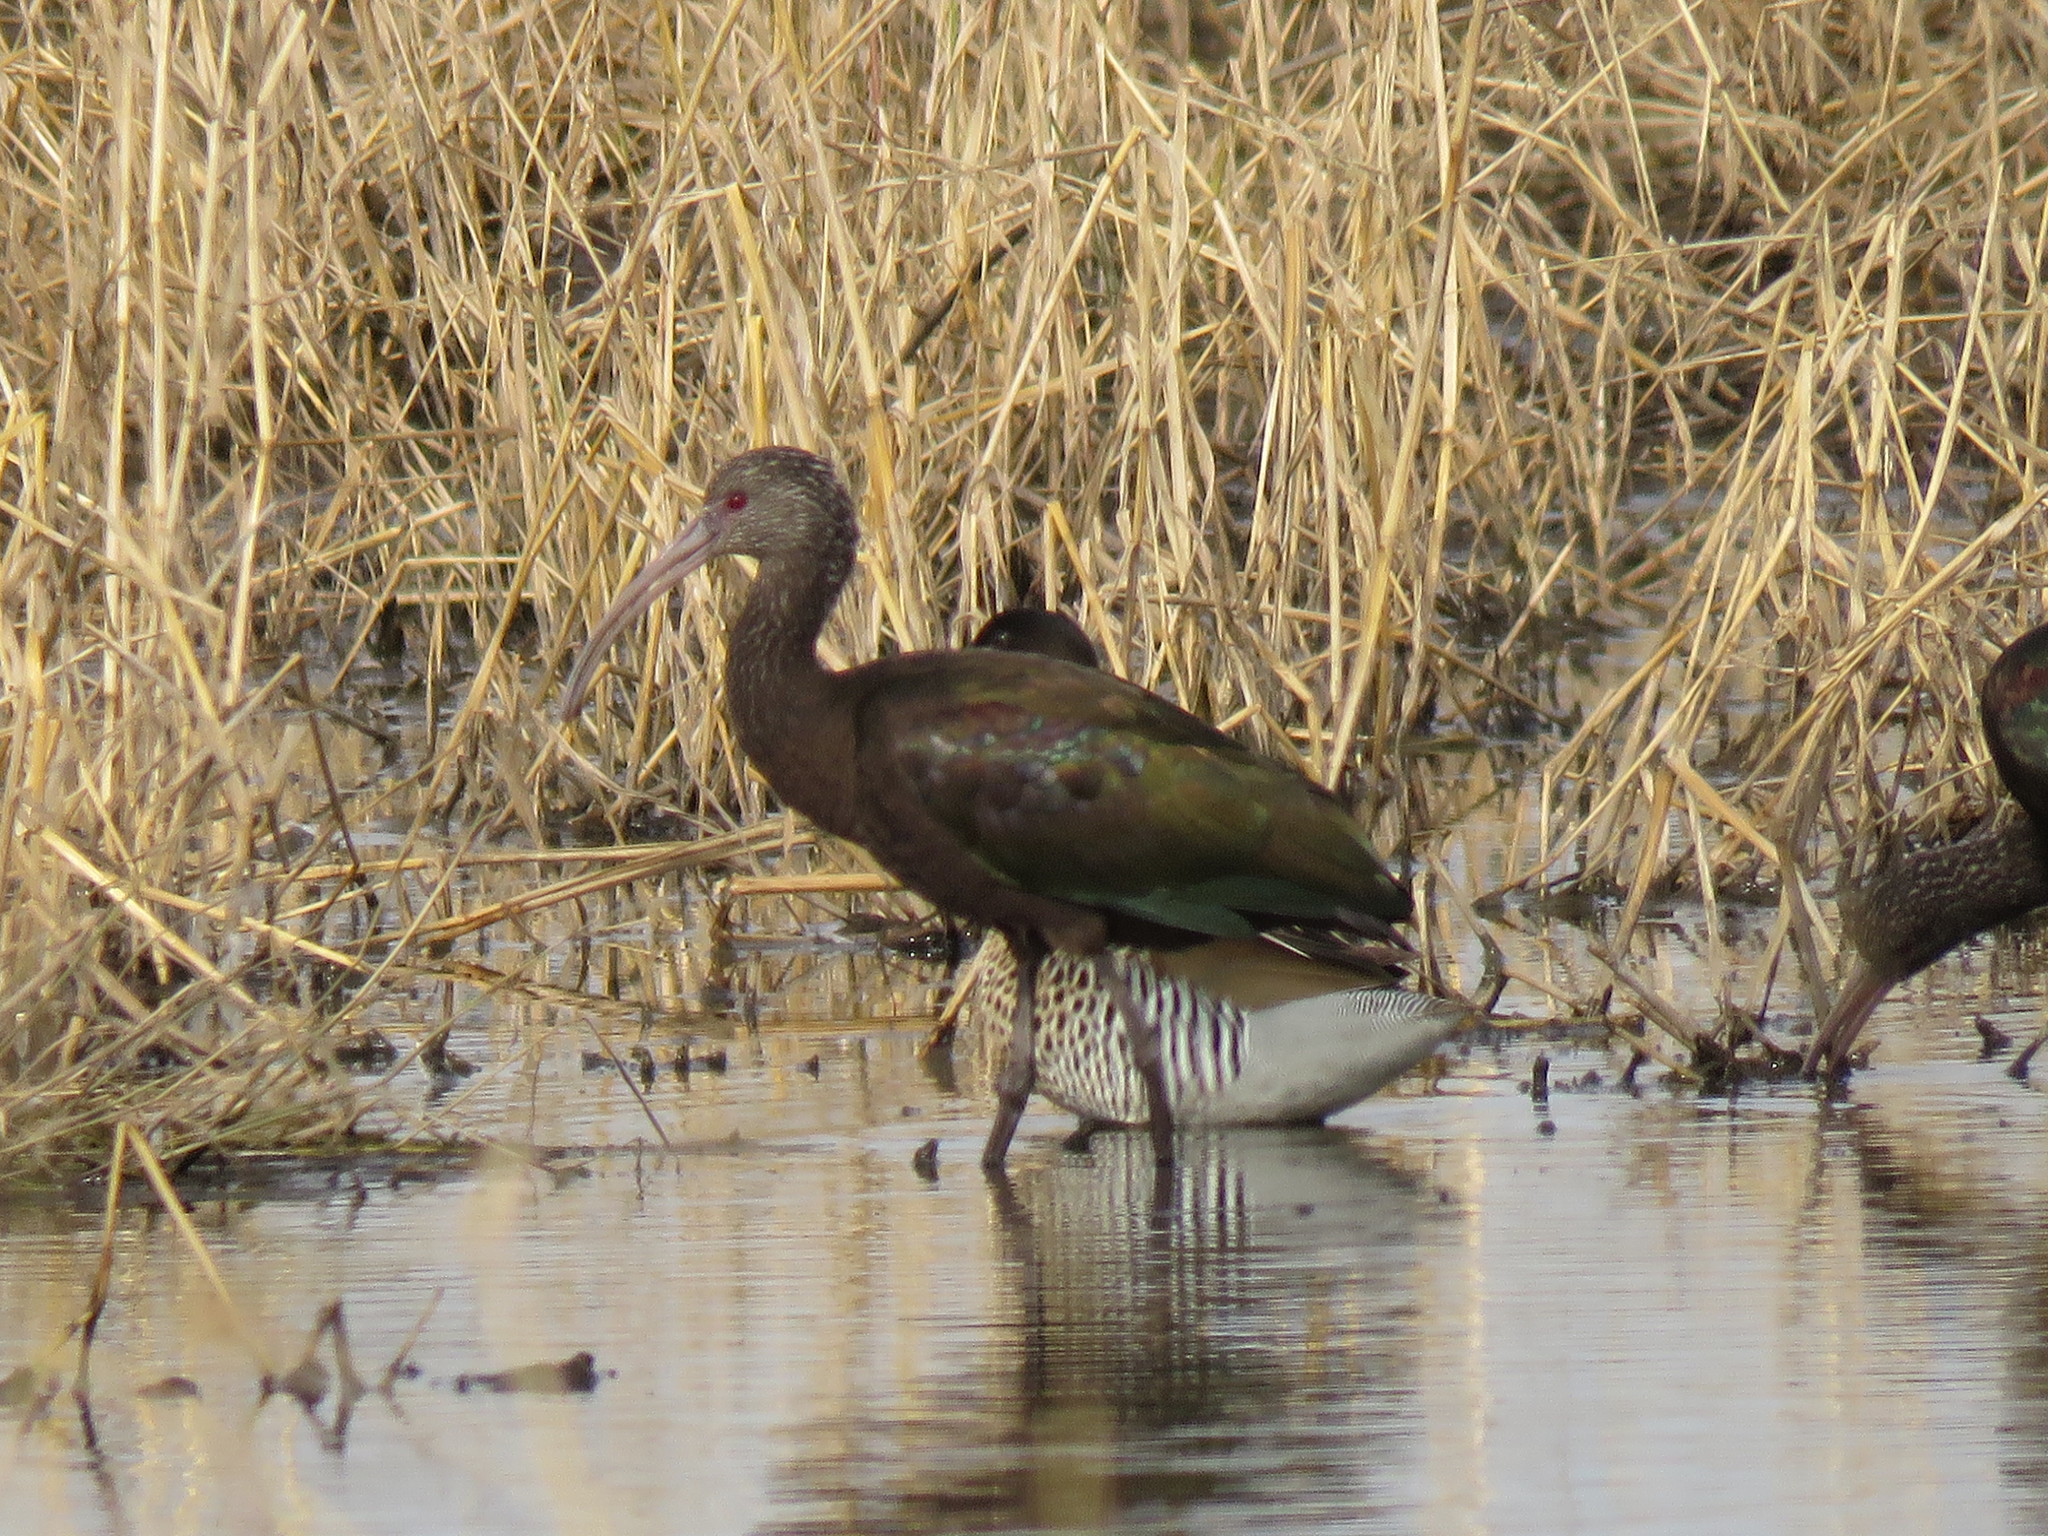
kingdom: Animalia
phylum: Chordata
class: Aves
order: Pelecaniformes
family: Threskiornithidae
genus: Plegadis
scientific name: Plegadis chihi
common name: White-faced ibis
